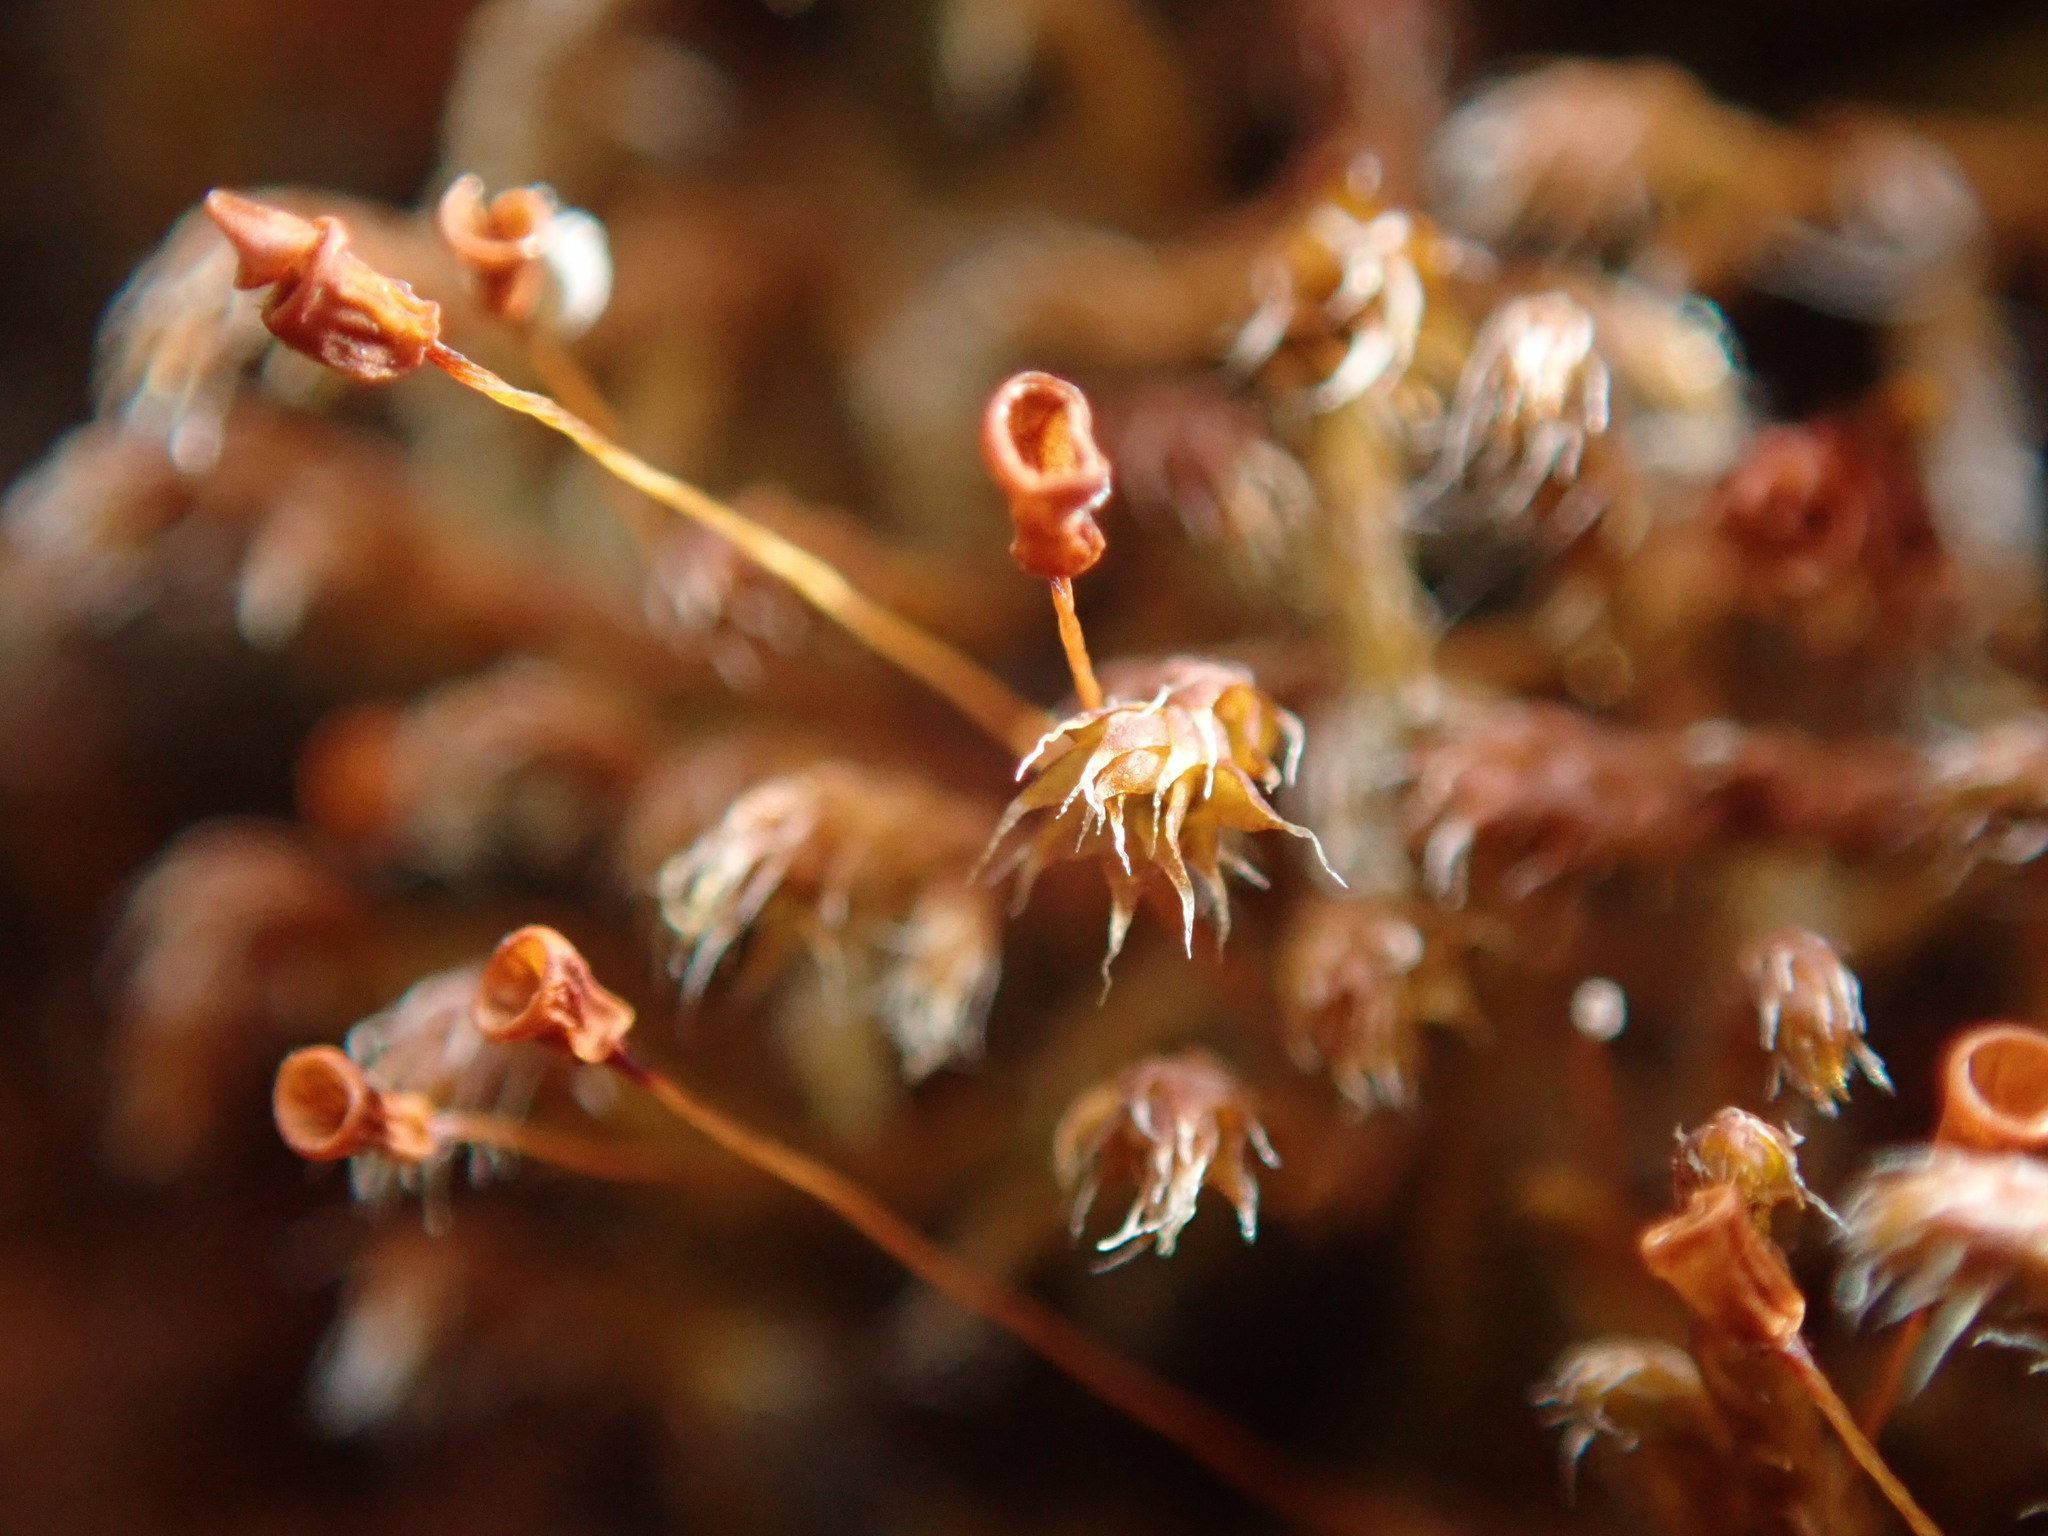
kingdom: Plantae
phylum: Bryophyta
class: Bryopsida
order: Hedwigiales
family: Hedwigiaceae
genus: Pseudobraunia
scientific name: Pseudobraunia californica
